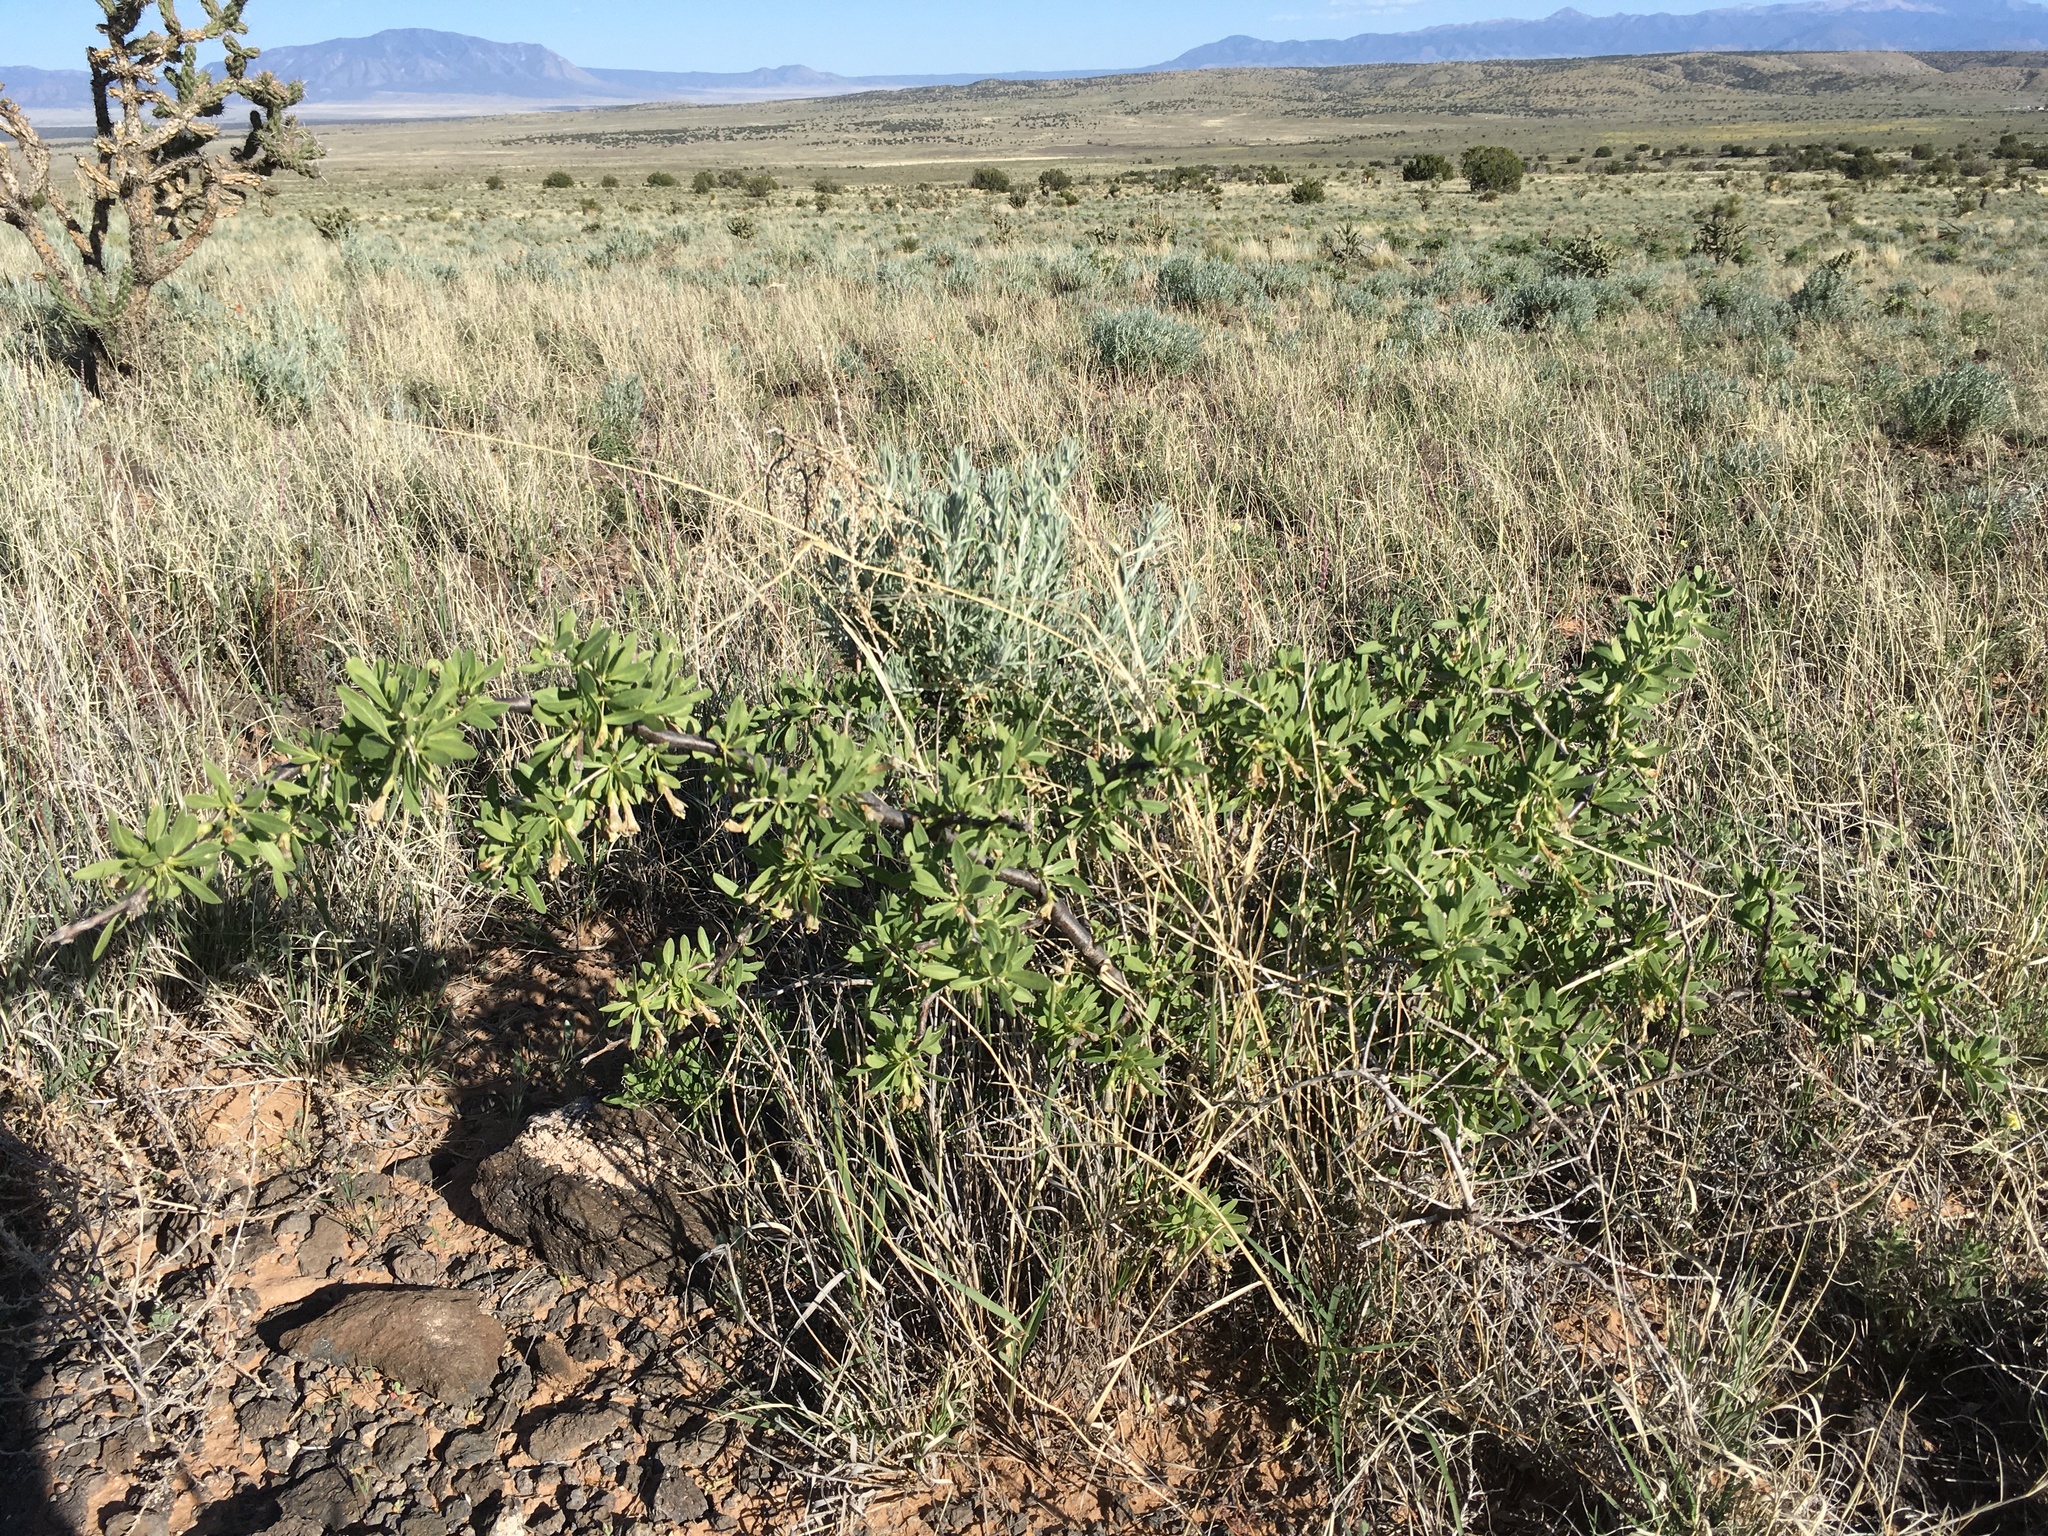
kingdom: Plantae
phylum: Tracheophyta
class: Magnoliopsida
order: Solanales
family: Solanaceae
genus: Lycium
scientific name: Lycium pallidum
